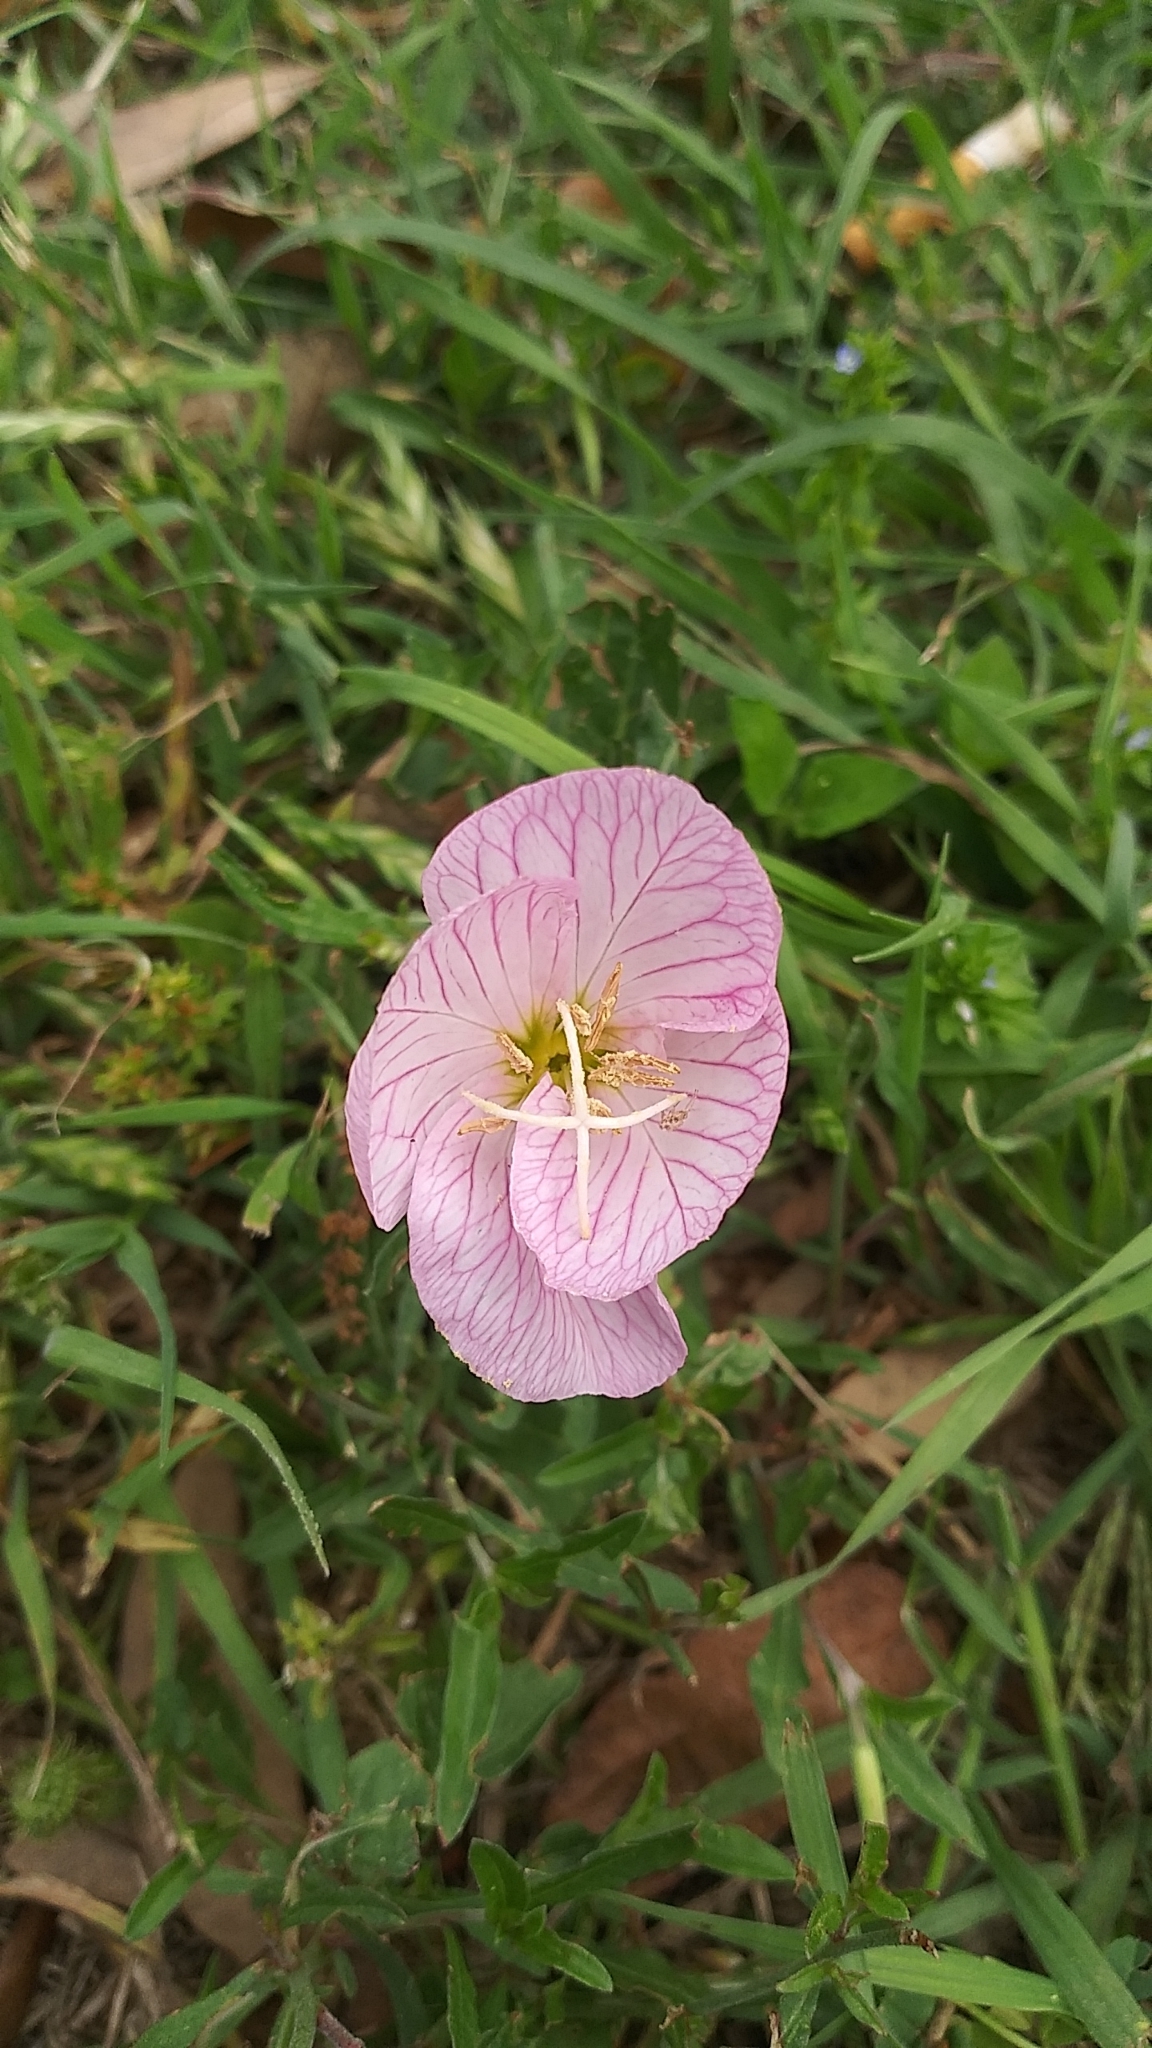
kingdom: Plantae
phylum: Tracheophyta
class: Magnoliopsida
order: Myrtales
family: Onagraceae
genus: Oenothera
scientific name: Oenothera speciosa
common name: White evening-primrose
